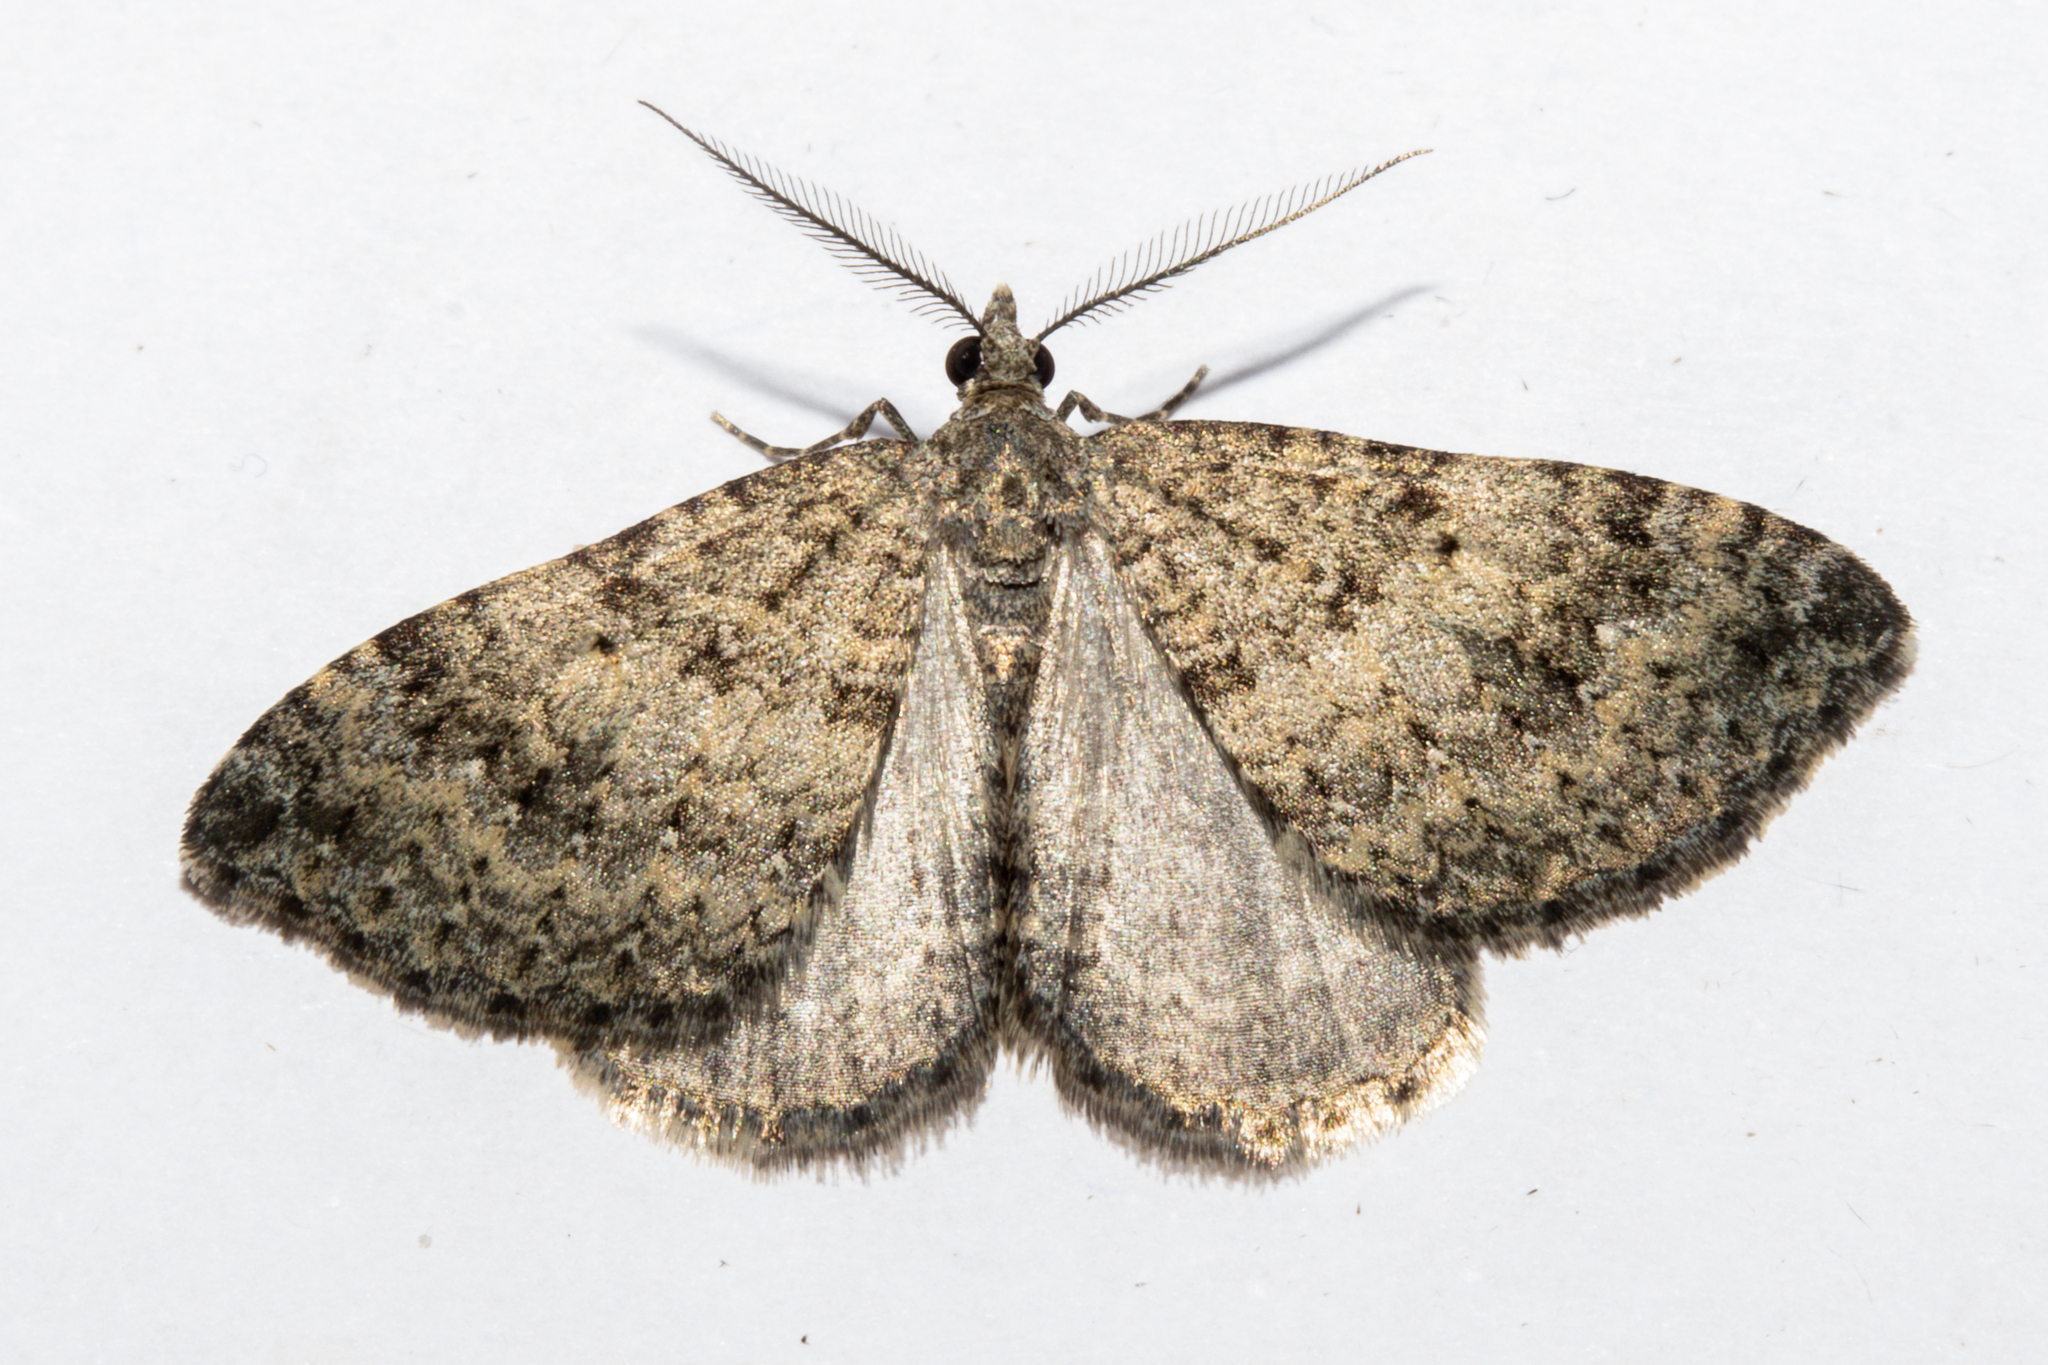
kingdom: Animalia
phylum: Arthropoda
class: Insecta
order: Lepidoptera
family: Geometridae
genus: Helastia
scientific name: Helastia corcularia
